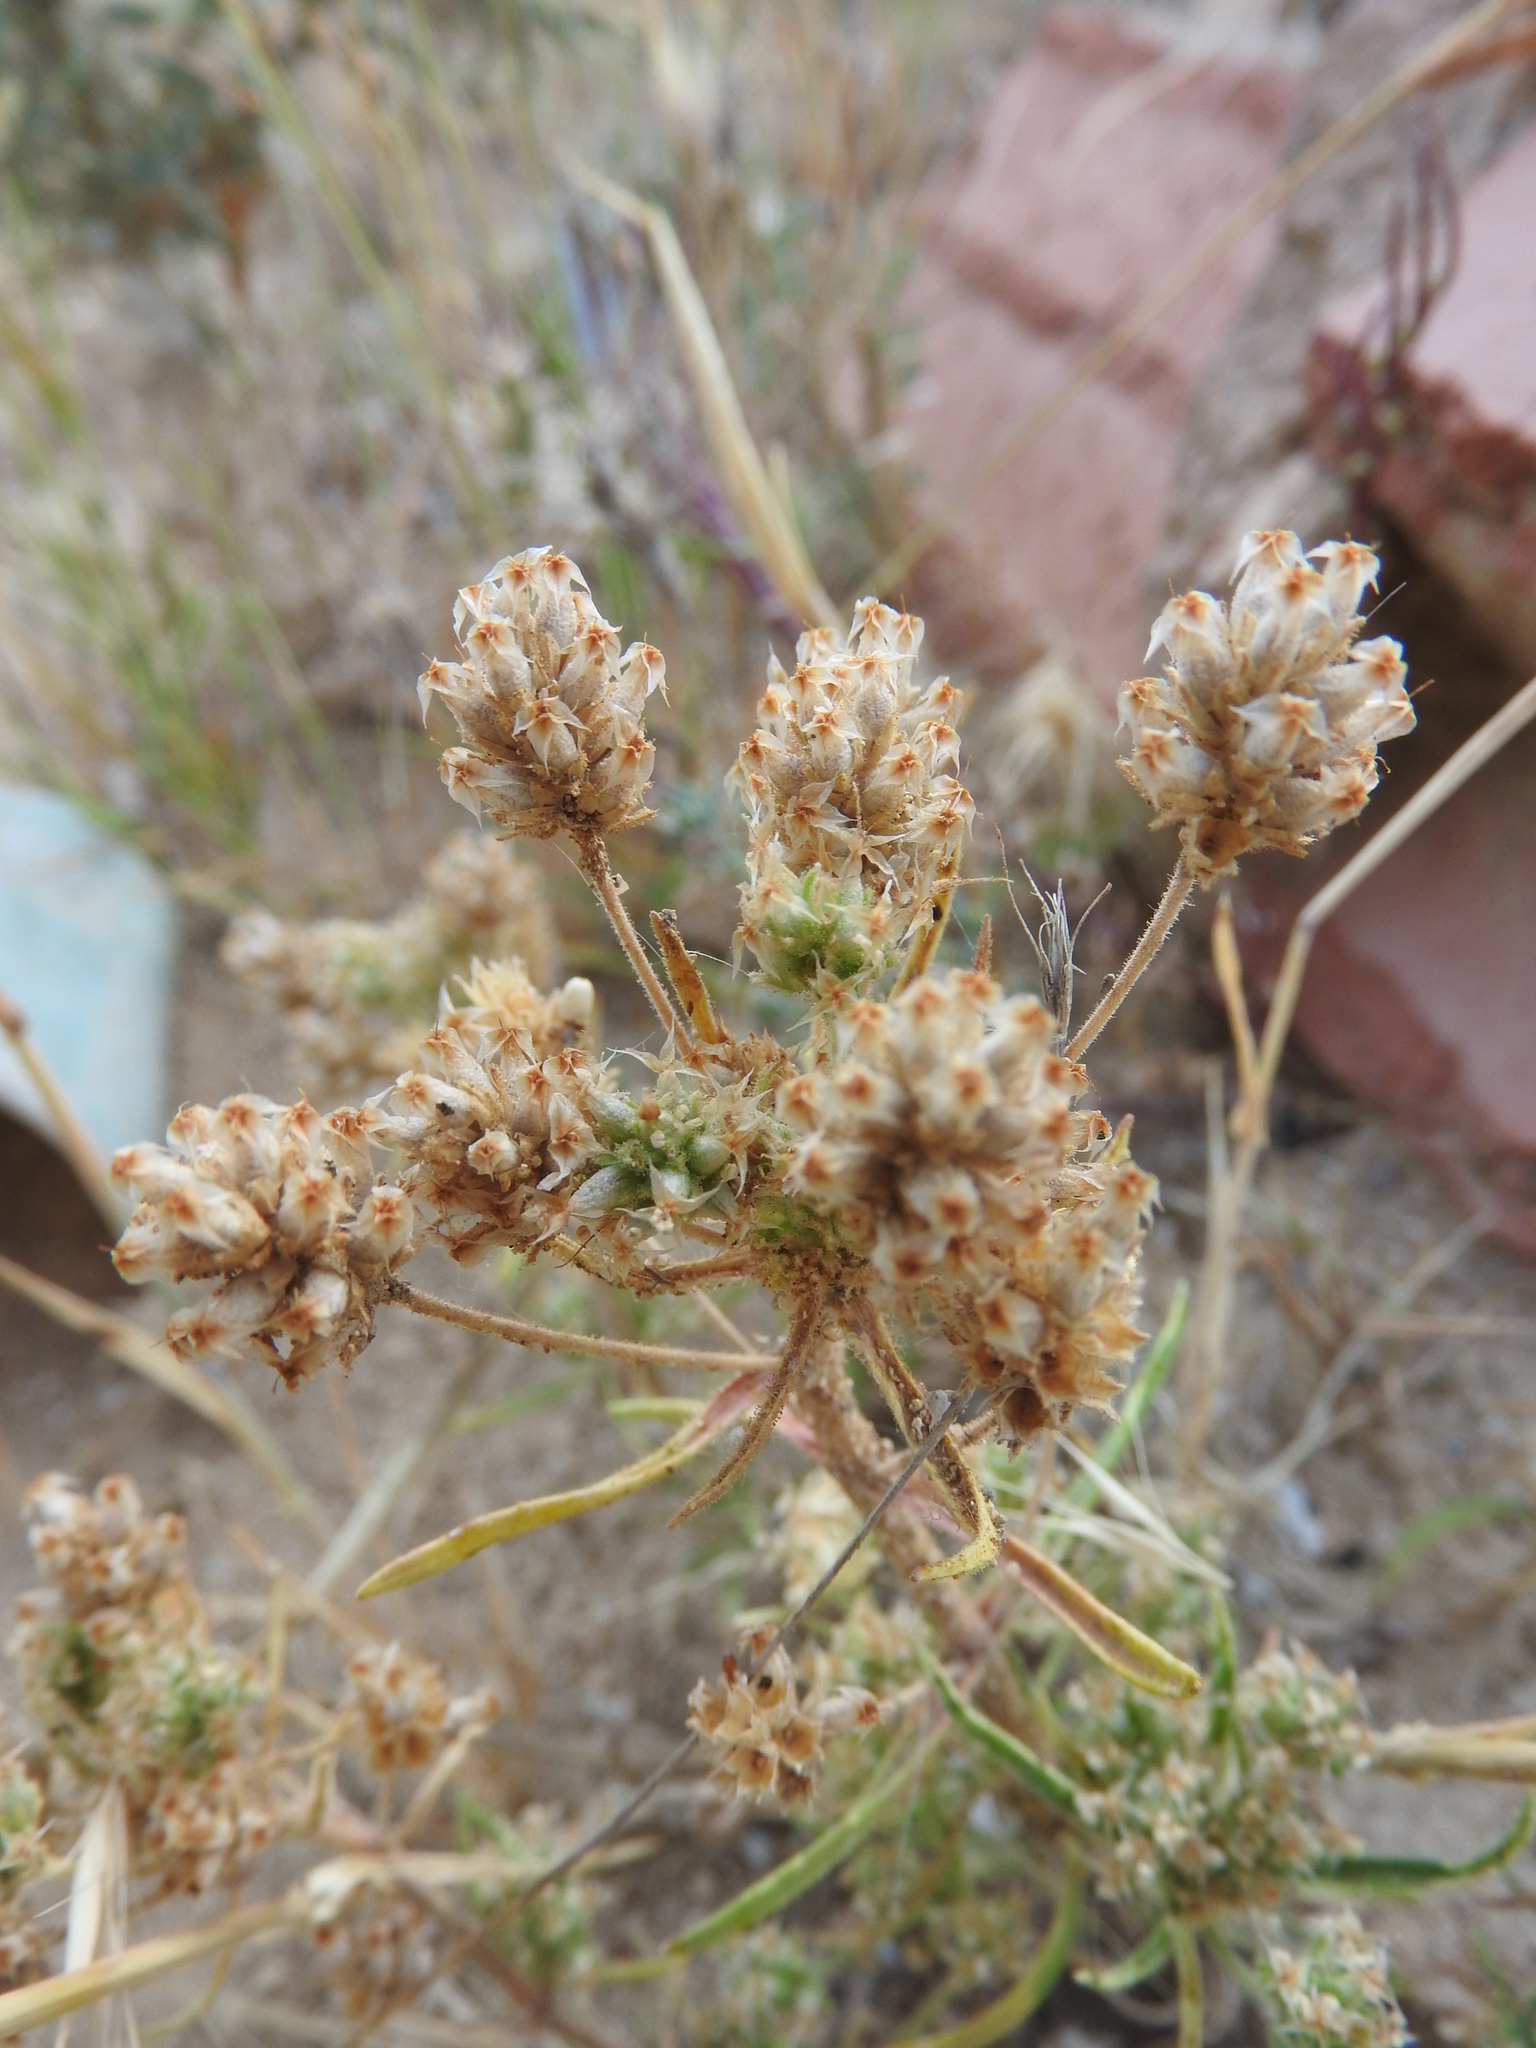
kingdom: Plantae
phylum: Tracheophyta
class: Magnoliopsida
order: Lamiales
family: Plantaginaceae
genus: Plantago
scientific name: Plantago afra
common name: Glandular plantain
